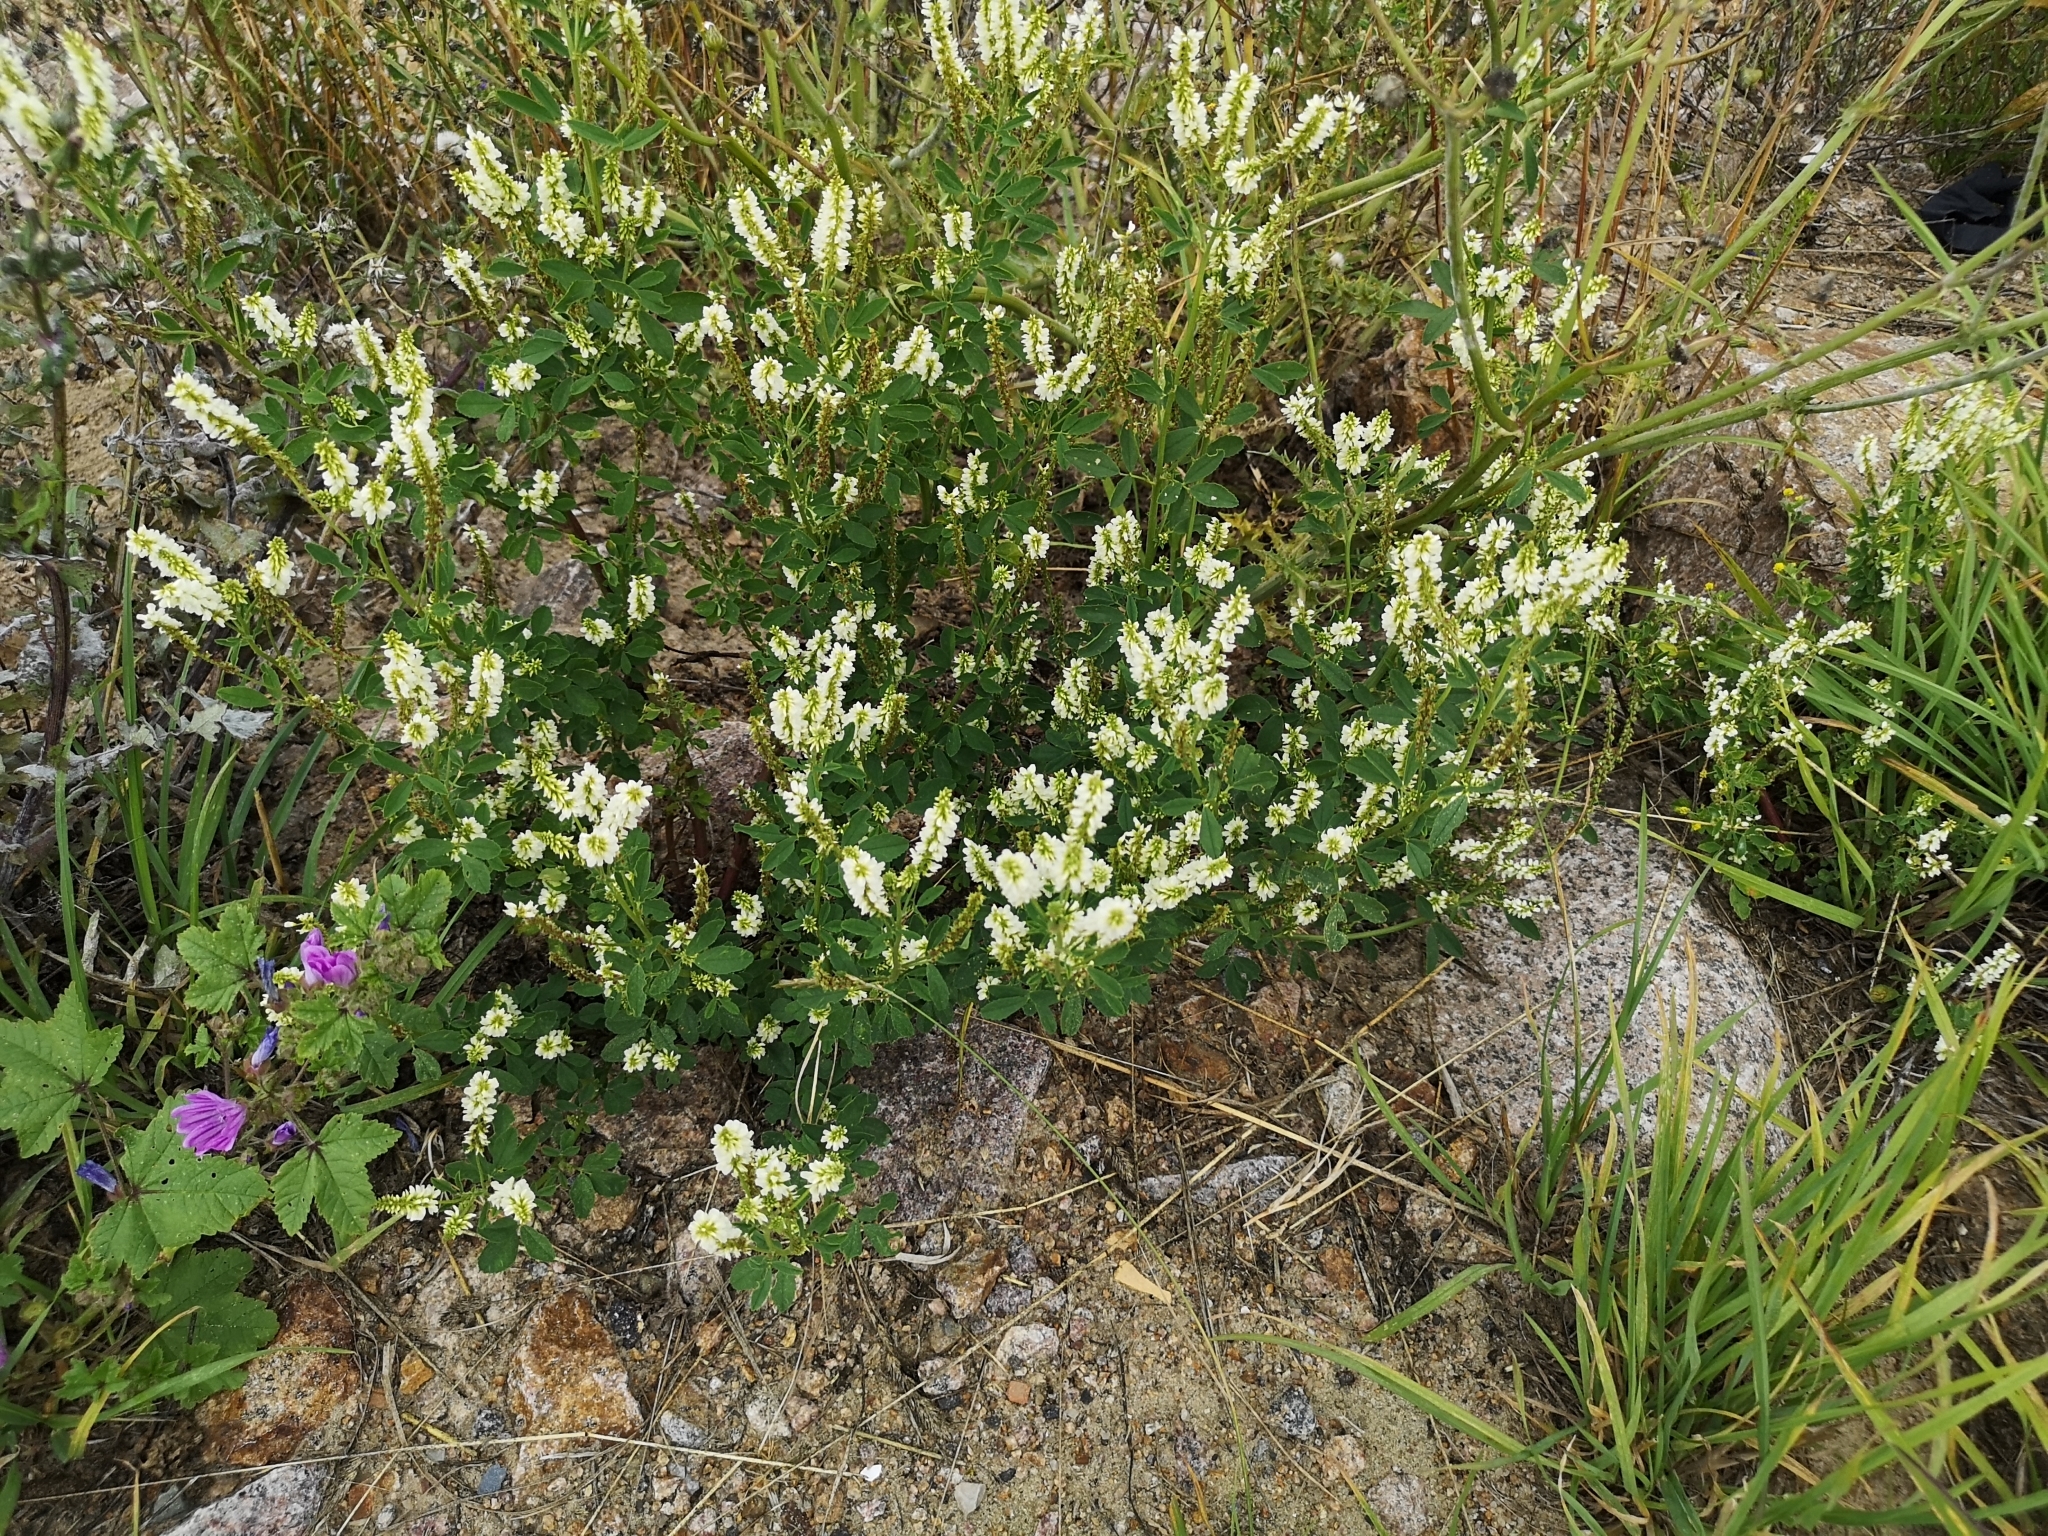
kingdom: Plantae
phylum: Tracheophyta
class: Magnoliopsida
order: Fabales
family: Fabaceae
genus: Melilotus
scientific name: Melilotus albus
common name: White melilot
